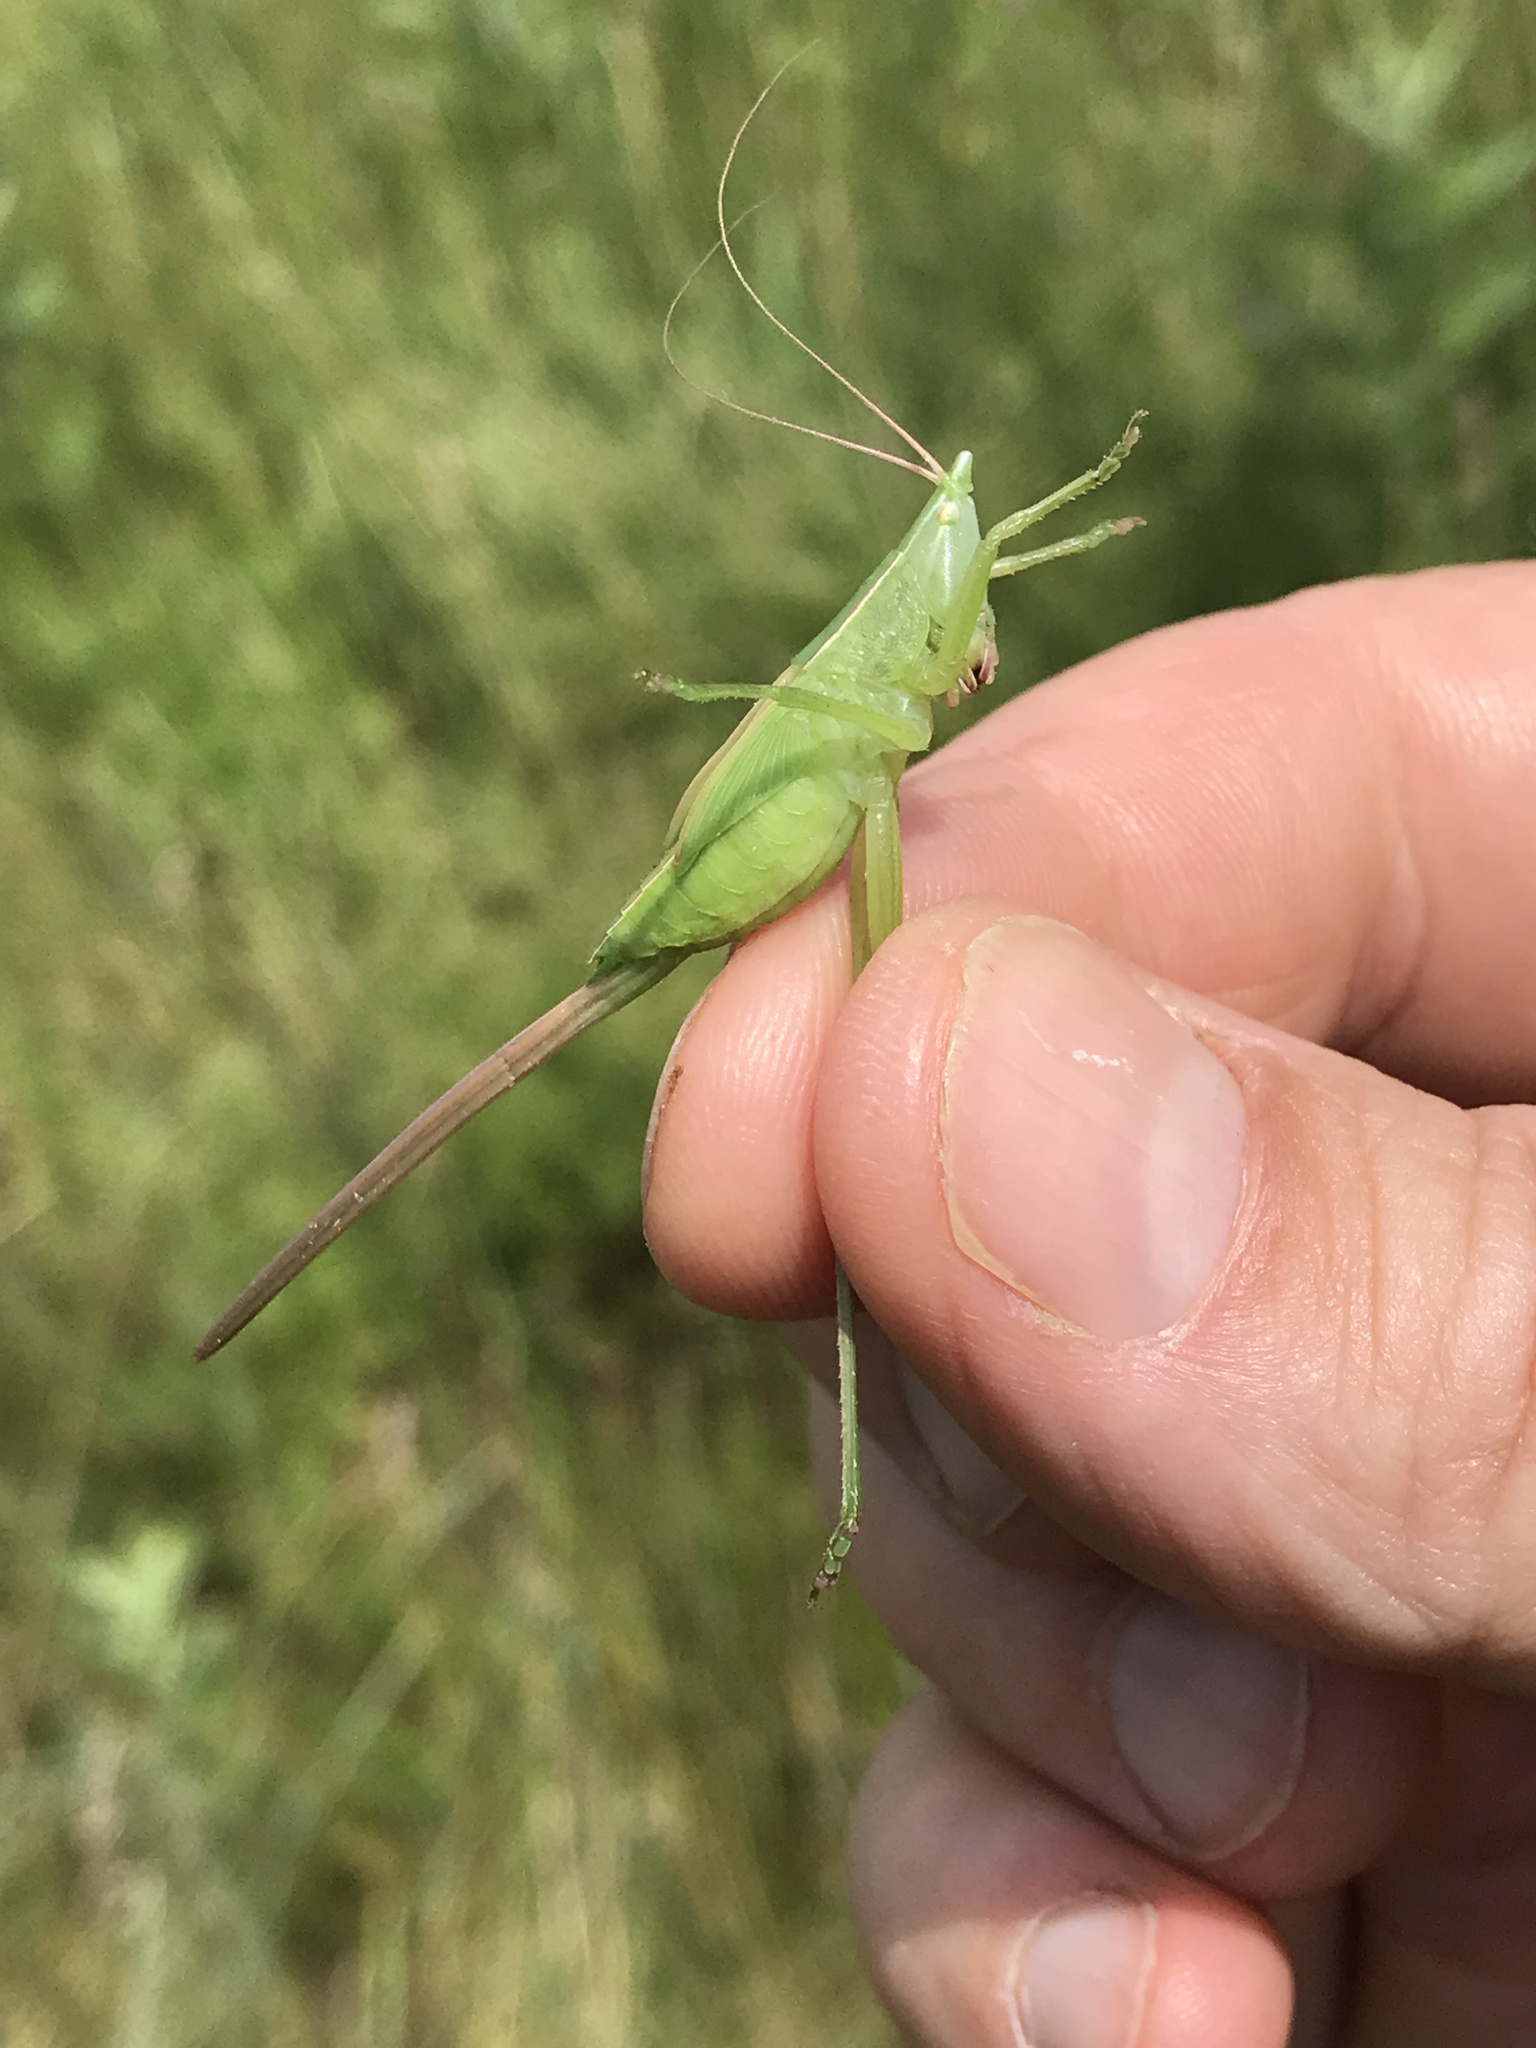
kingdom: Animalia
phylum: Arthropoda
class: Insecta
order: Orthoptera
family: Tettigoniidae
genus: Neoconocephalus
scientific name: Neoconocephalus ensiger
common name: Swordbearer
